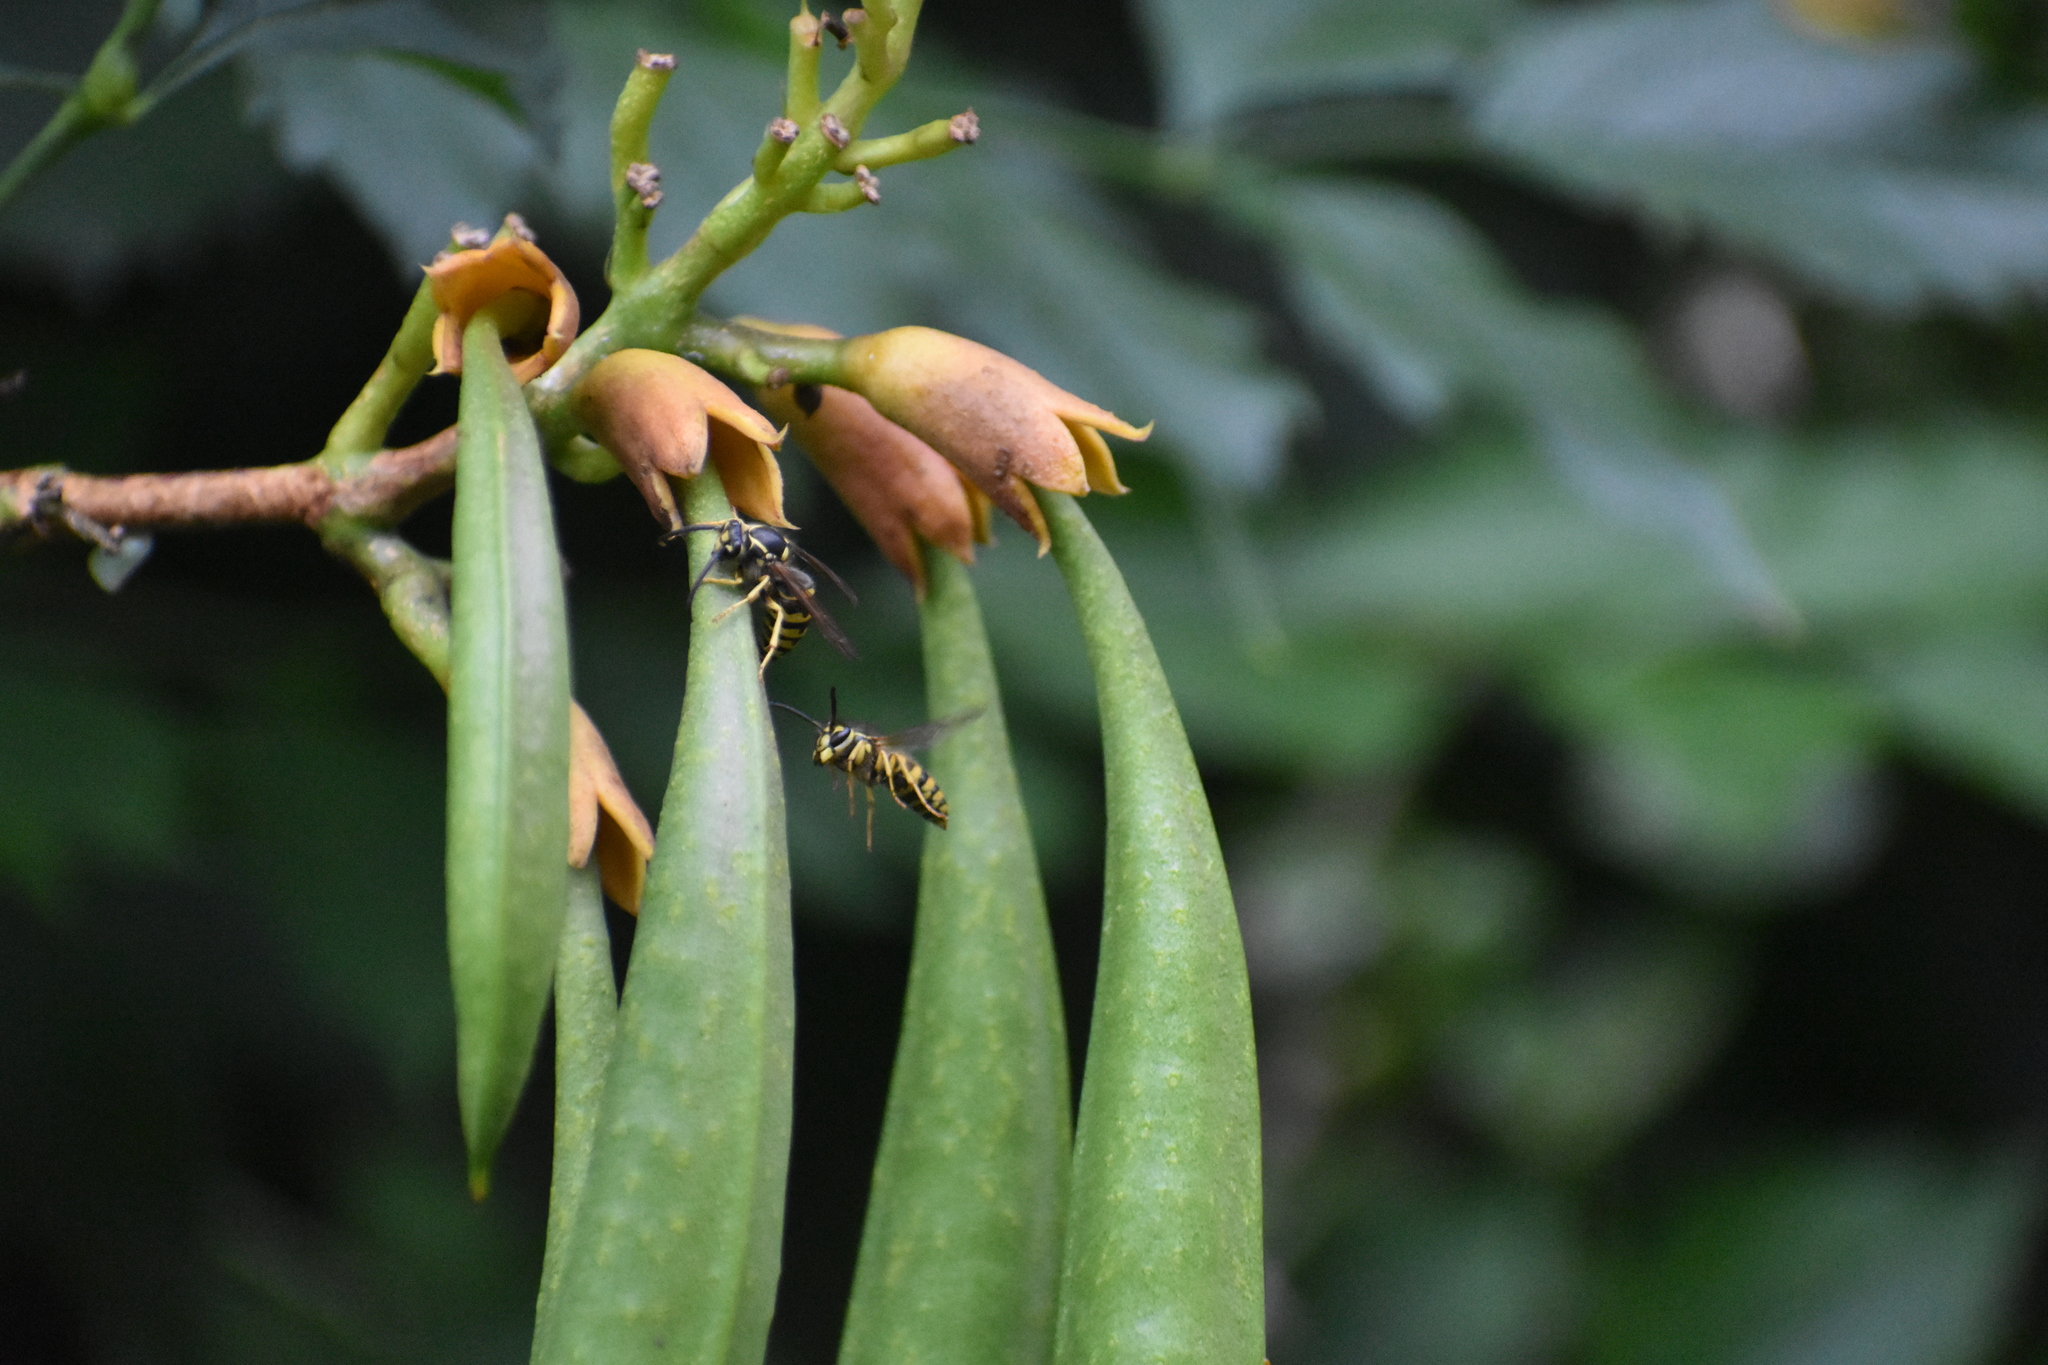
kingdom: Animalia
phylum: Arthropoda
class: Insecta
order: Hymenoptera
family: Vespidae
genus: Dolichovespula
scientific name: Dolichovespula arenaria
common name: Aerial yellowjacket
